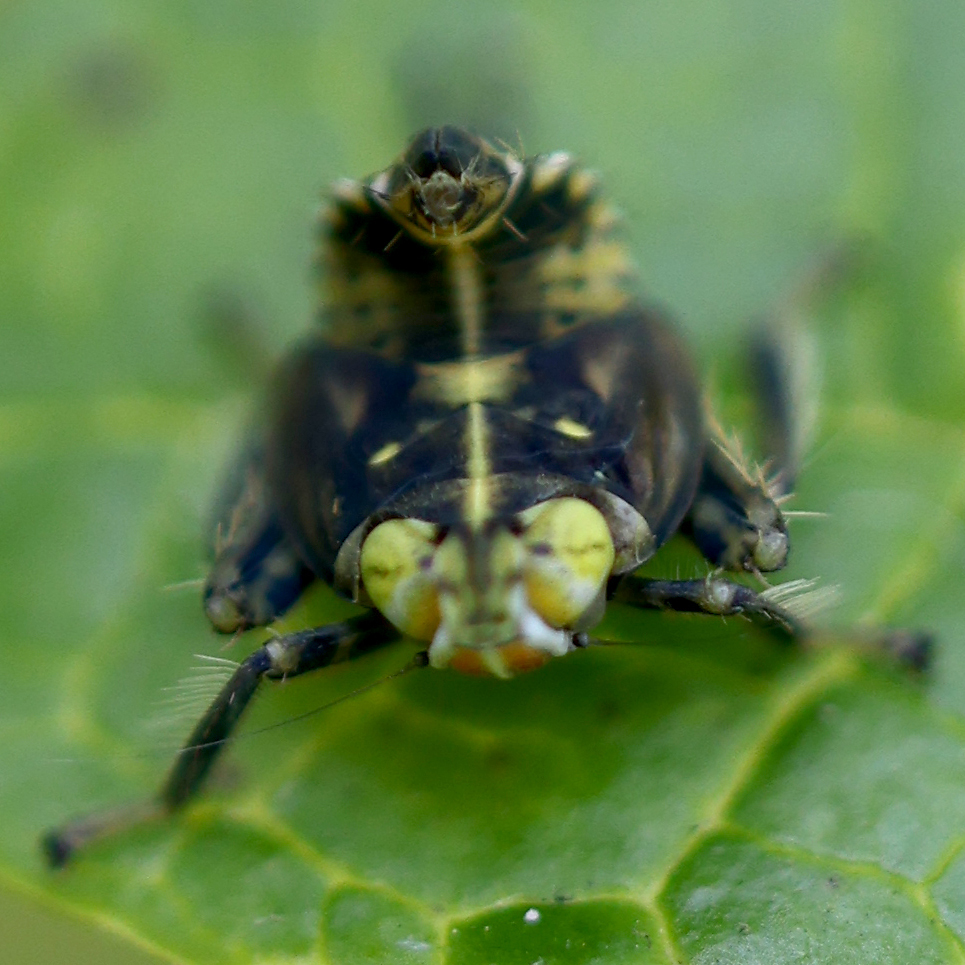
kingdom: Animalia
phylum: Arthropoda
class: Insecta
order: Hemiptera
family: Cicadellidae
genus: Jikradia
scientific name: Jikradia olitoria
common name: Coppery leafhopper
